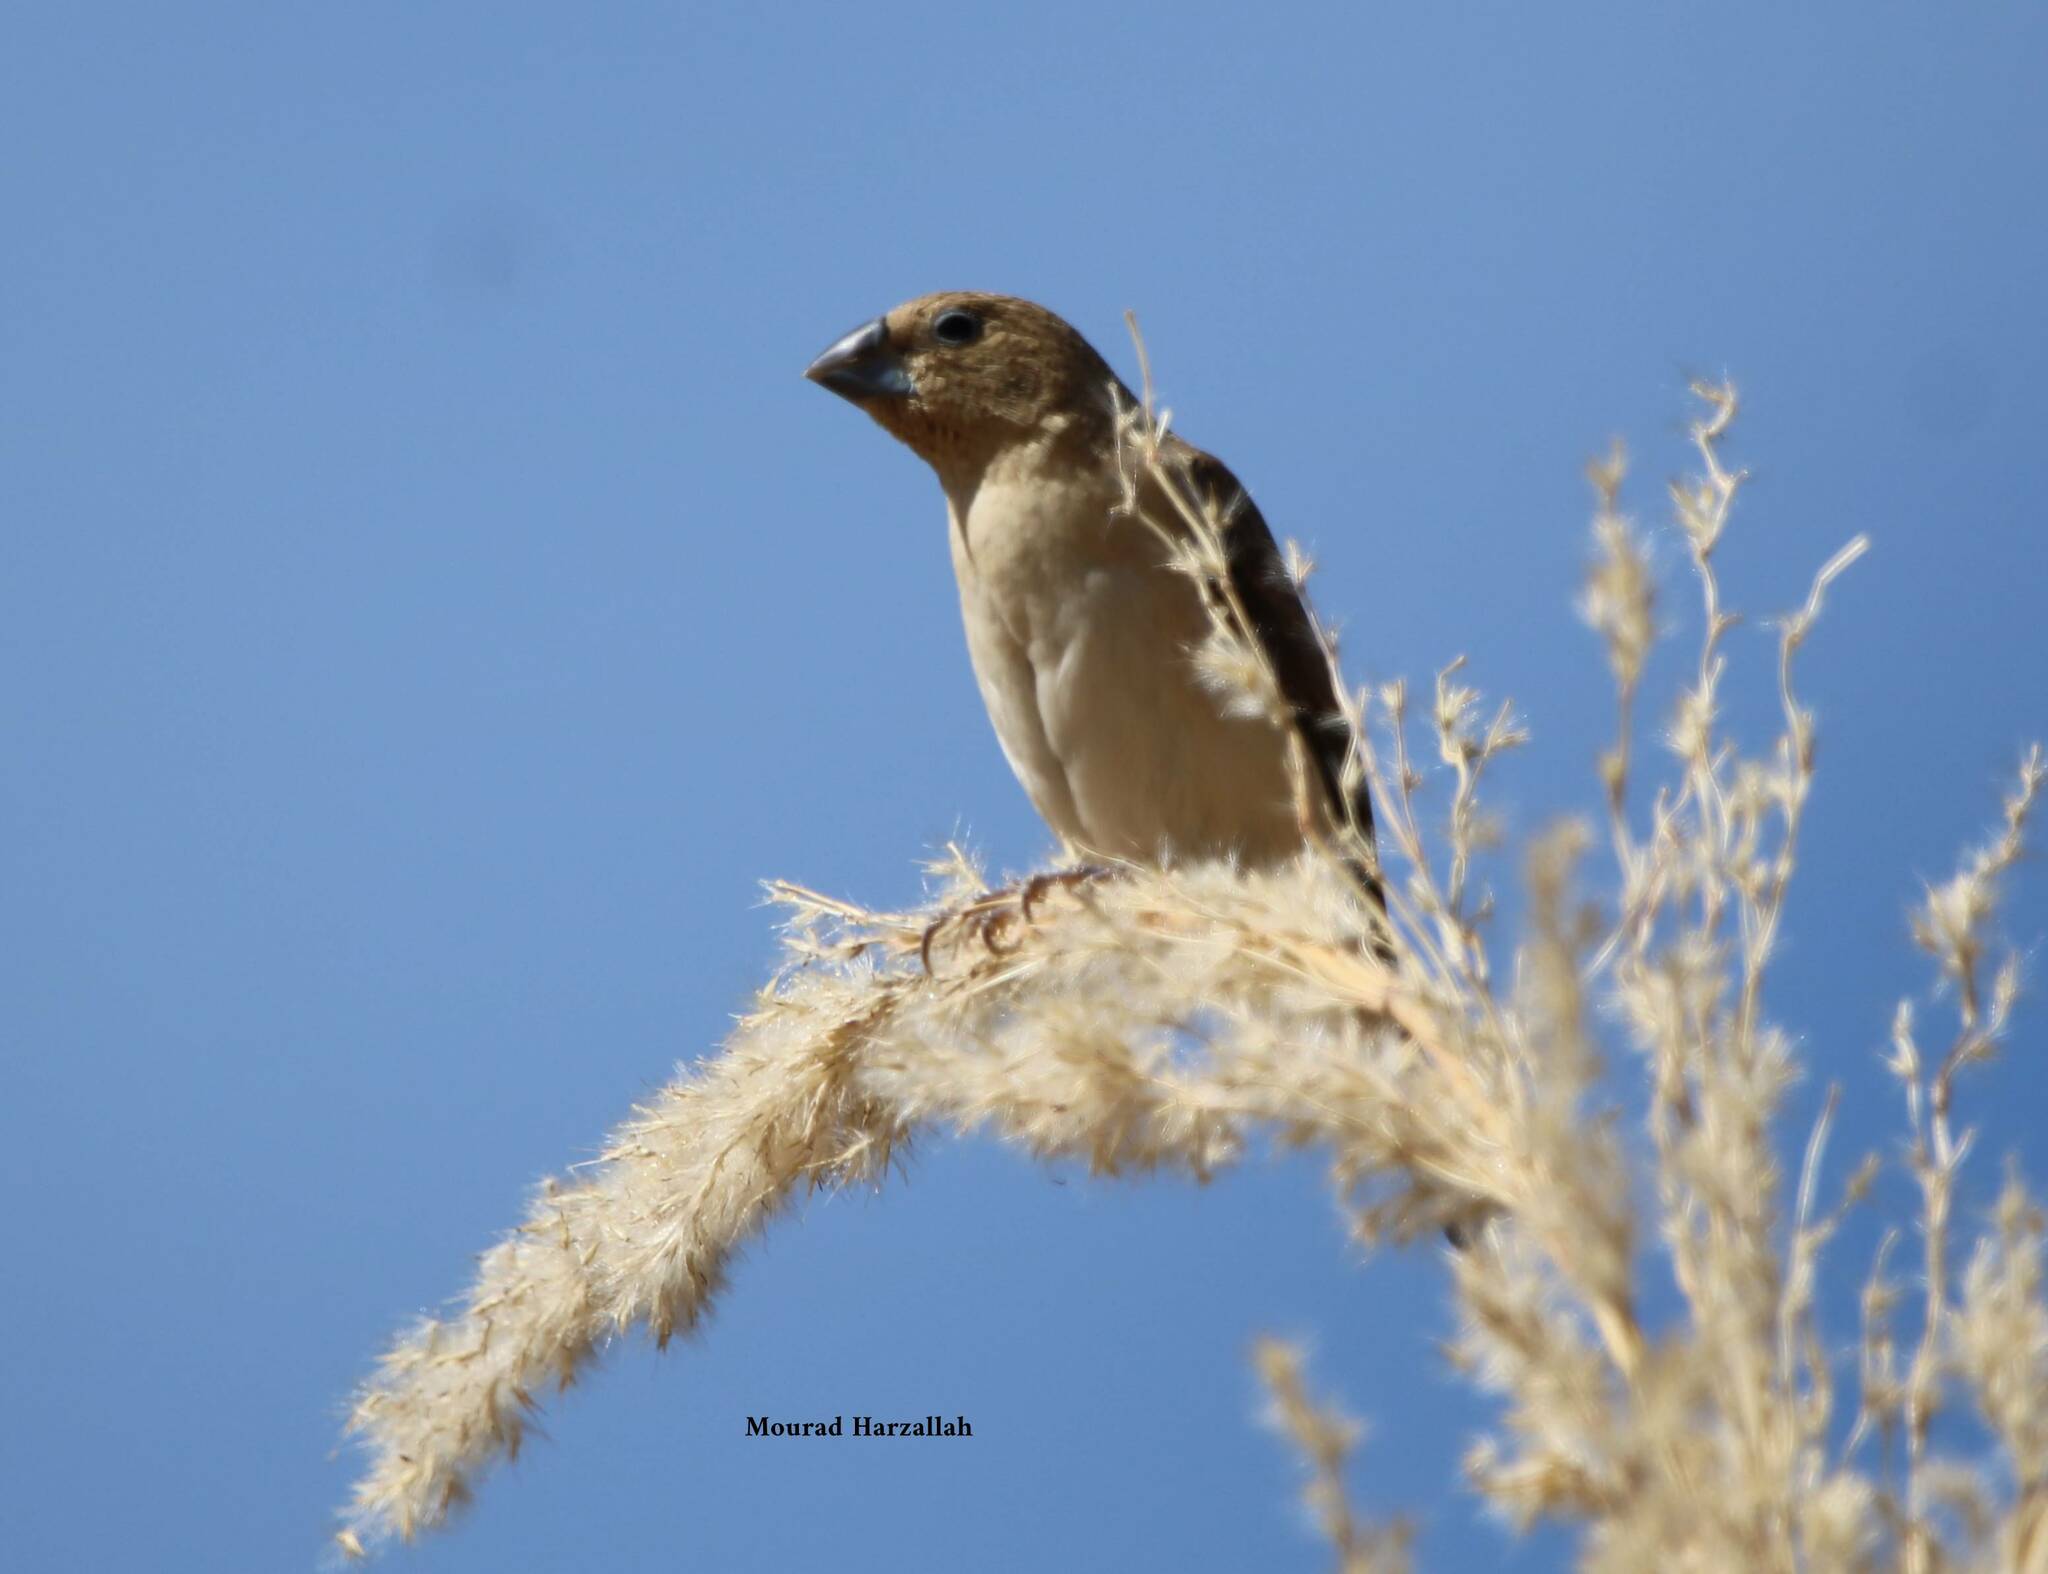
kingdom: Animalia
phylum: Chordata
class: Aves
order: Passeriformes
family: Estrildidae
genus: Euodice
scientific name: Euodice cantans
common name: African silverbill
